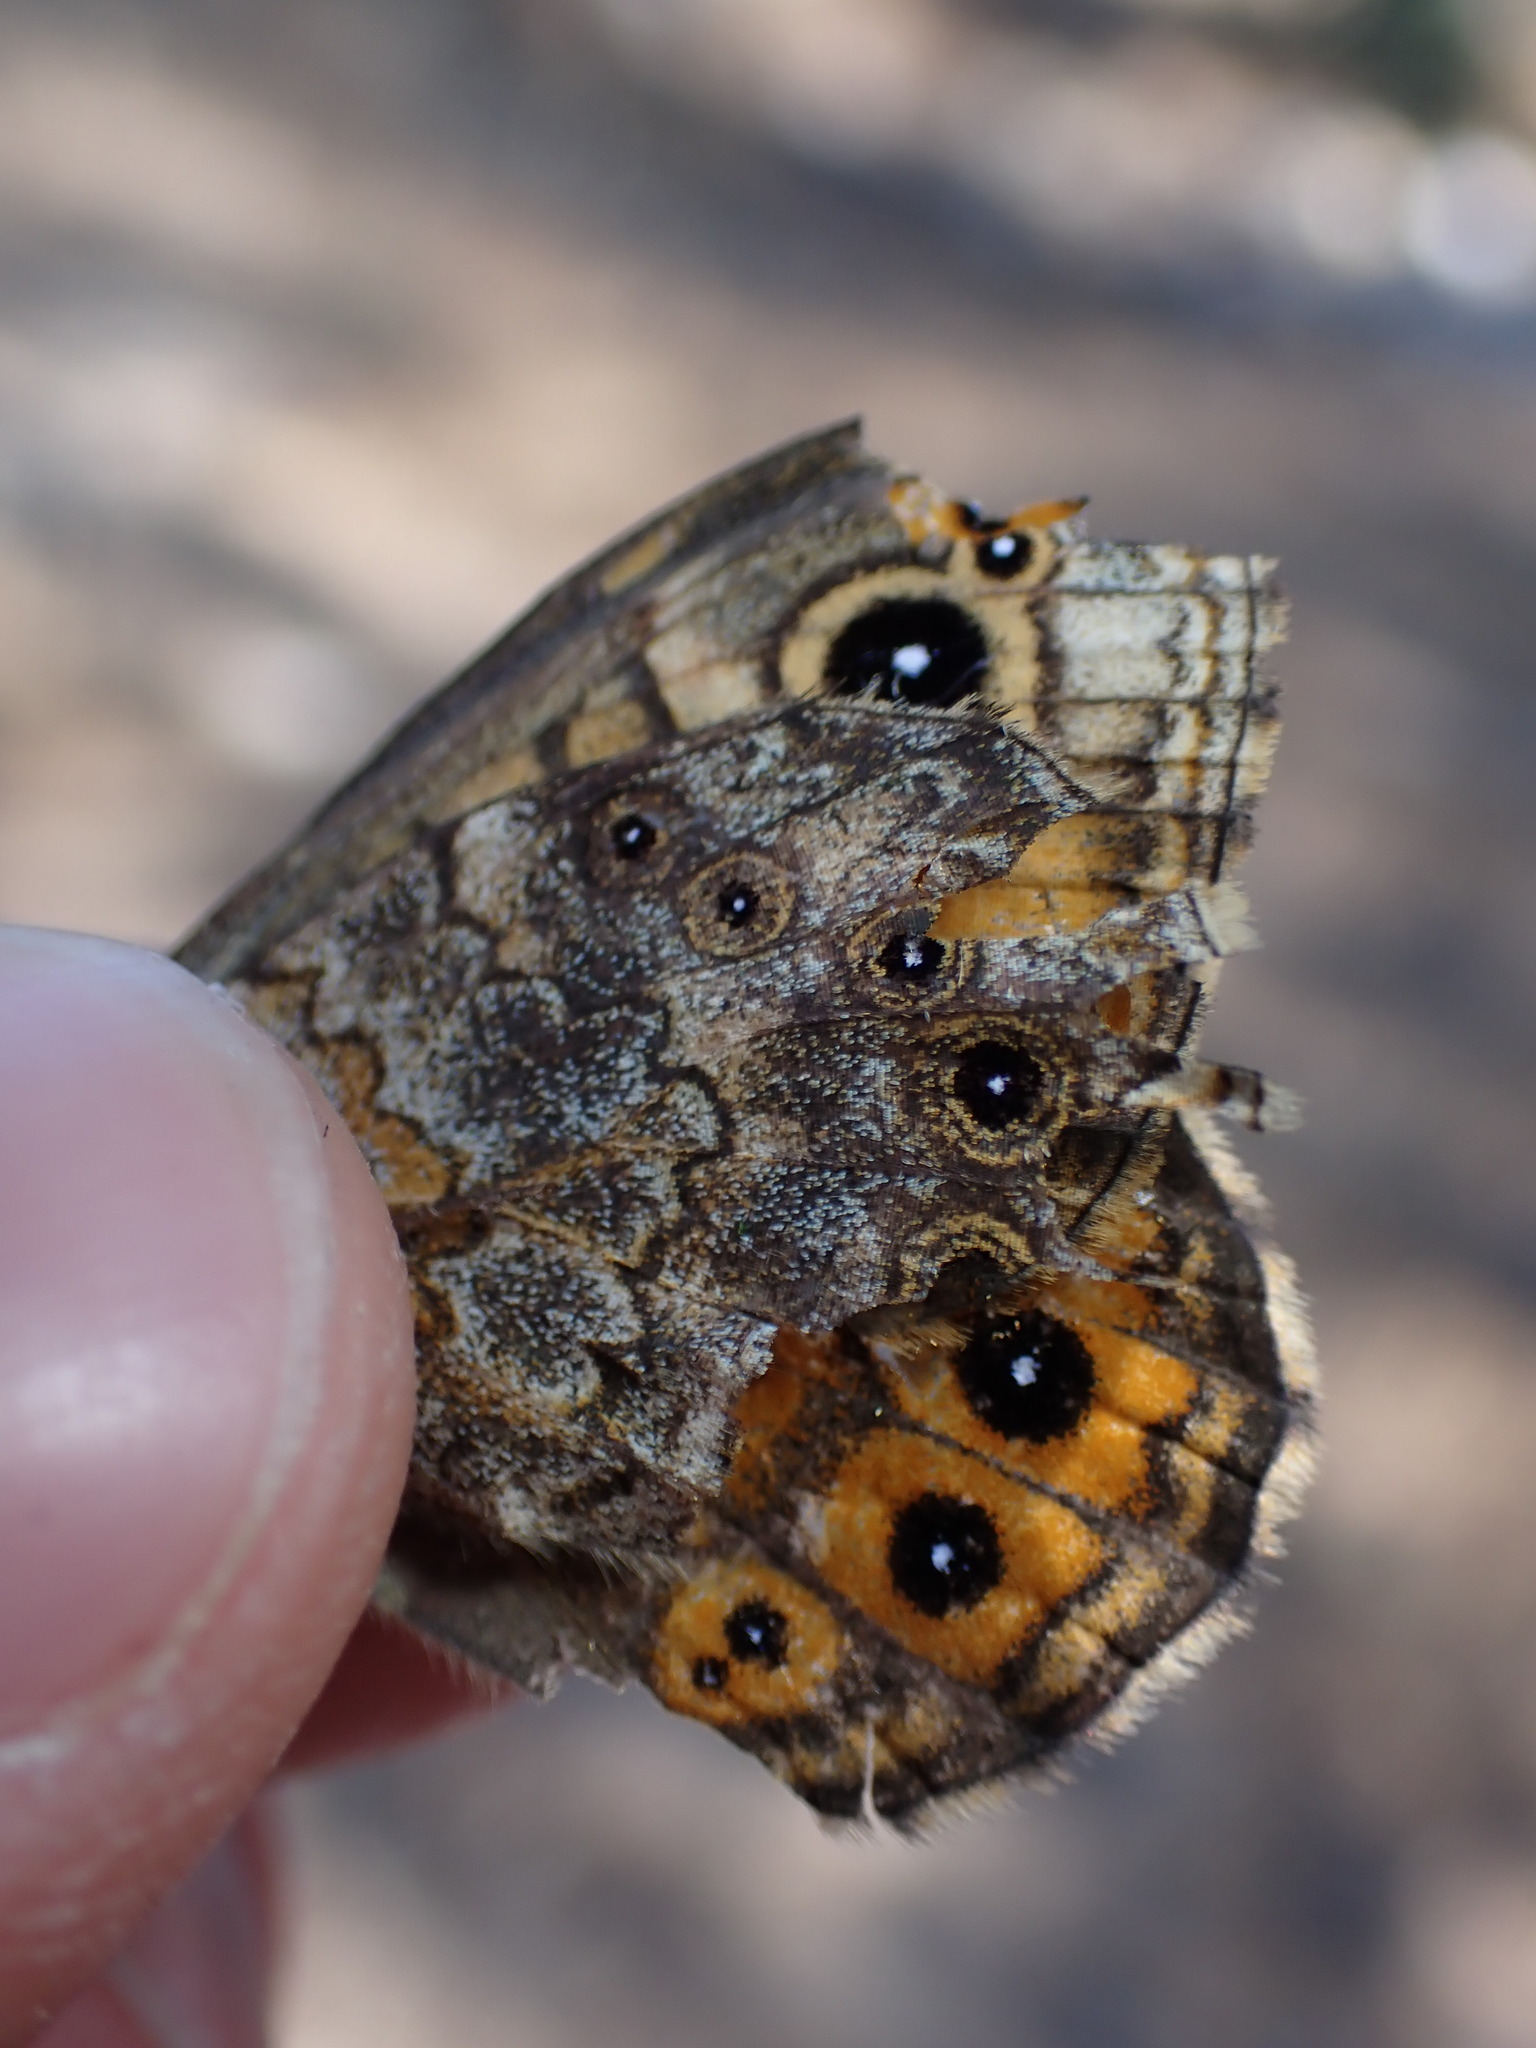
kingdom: Animalia
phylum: Arthropoda
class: Insecta
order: Lepidoptera
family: Nymphalidae
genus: Pararge
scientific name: Pararge Lasiommata megera
